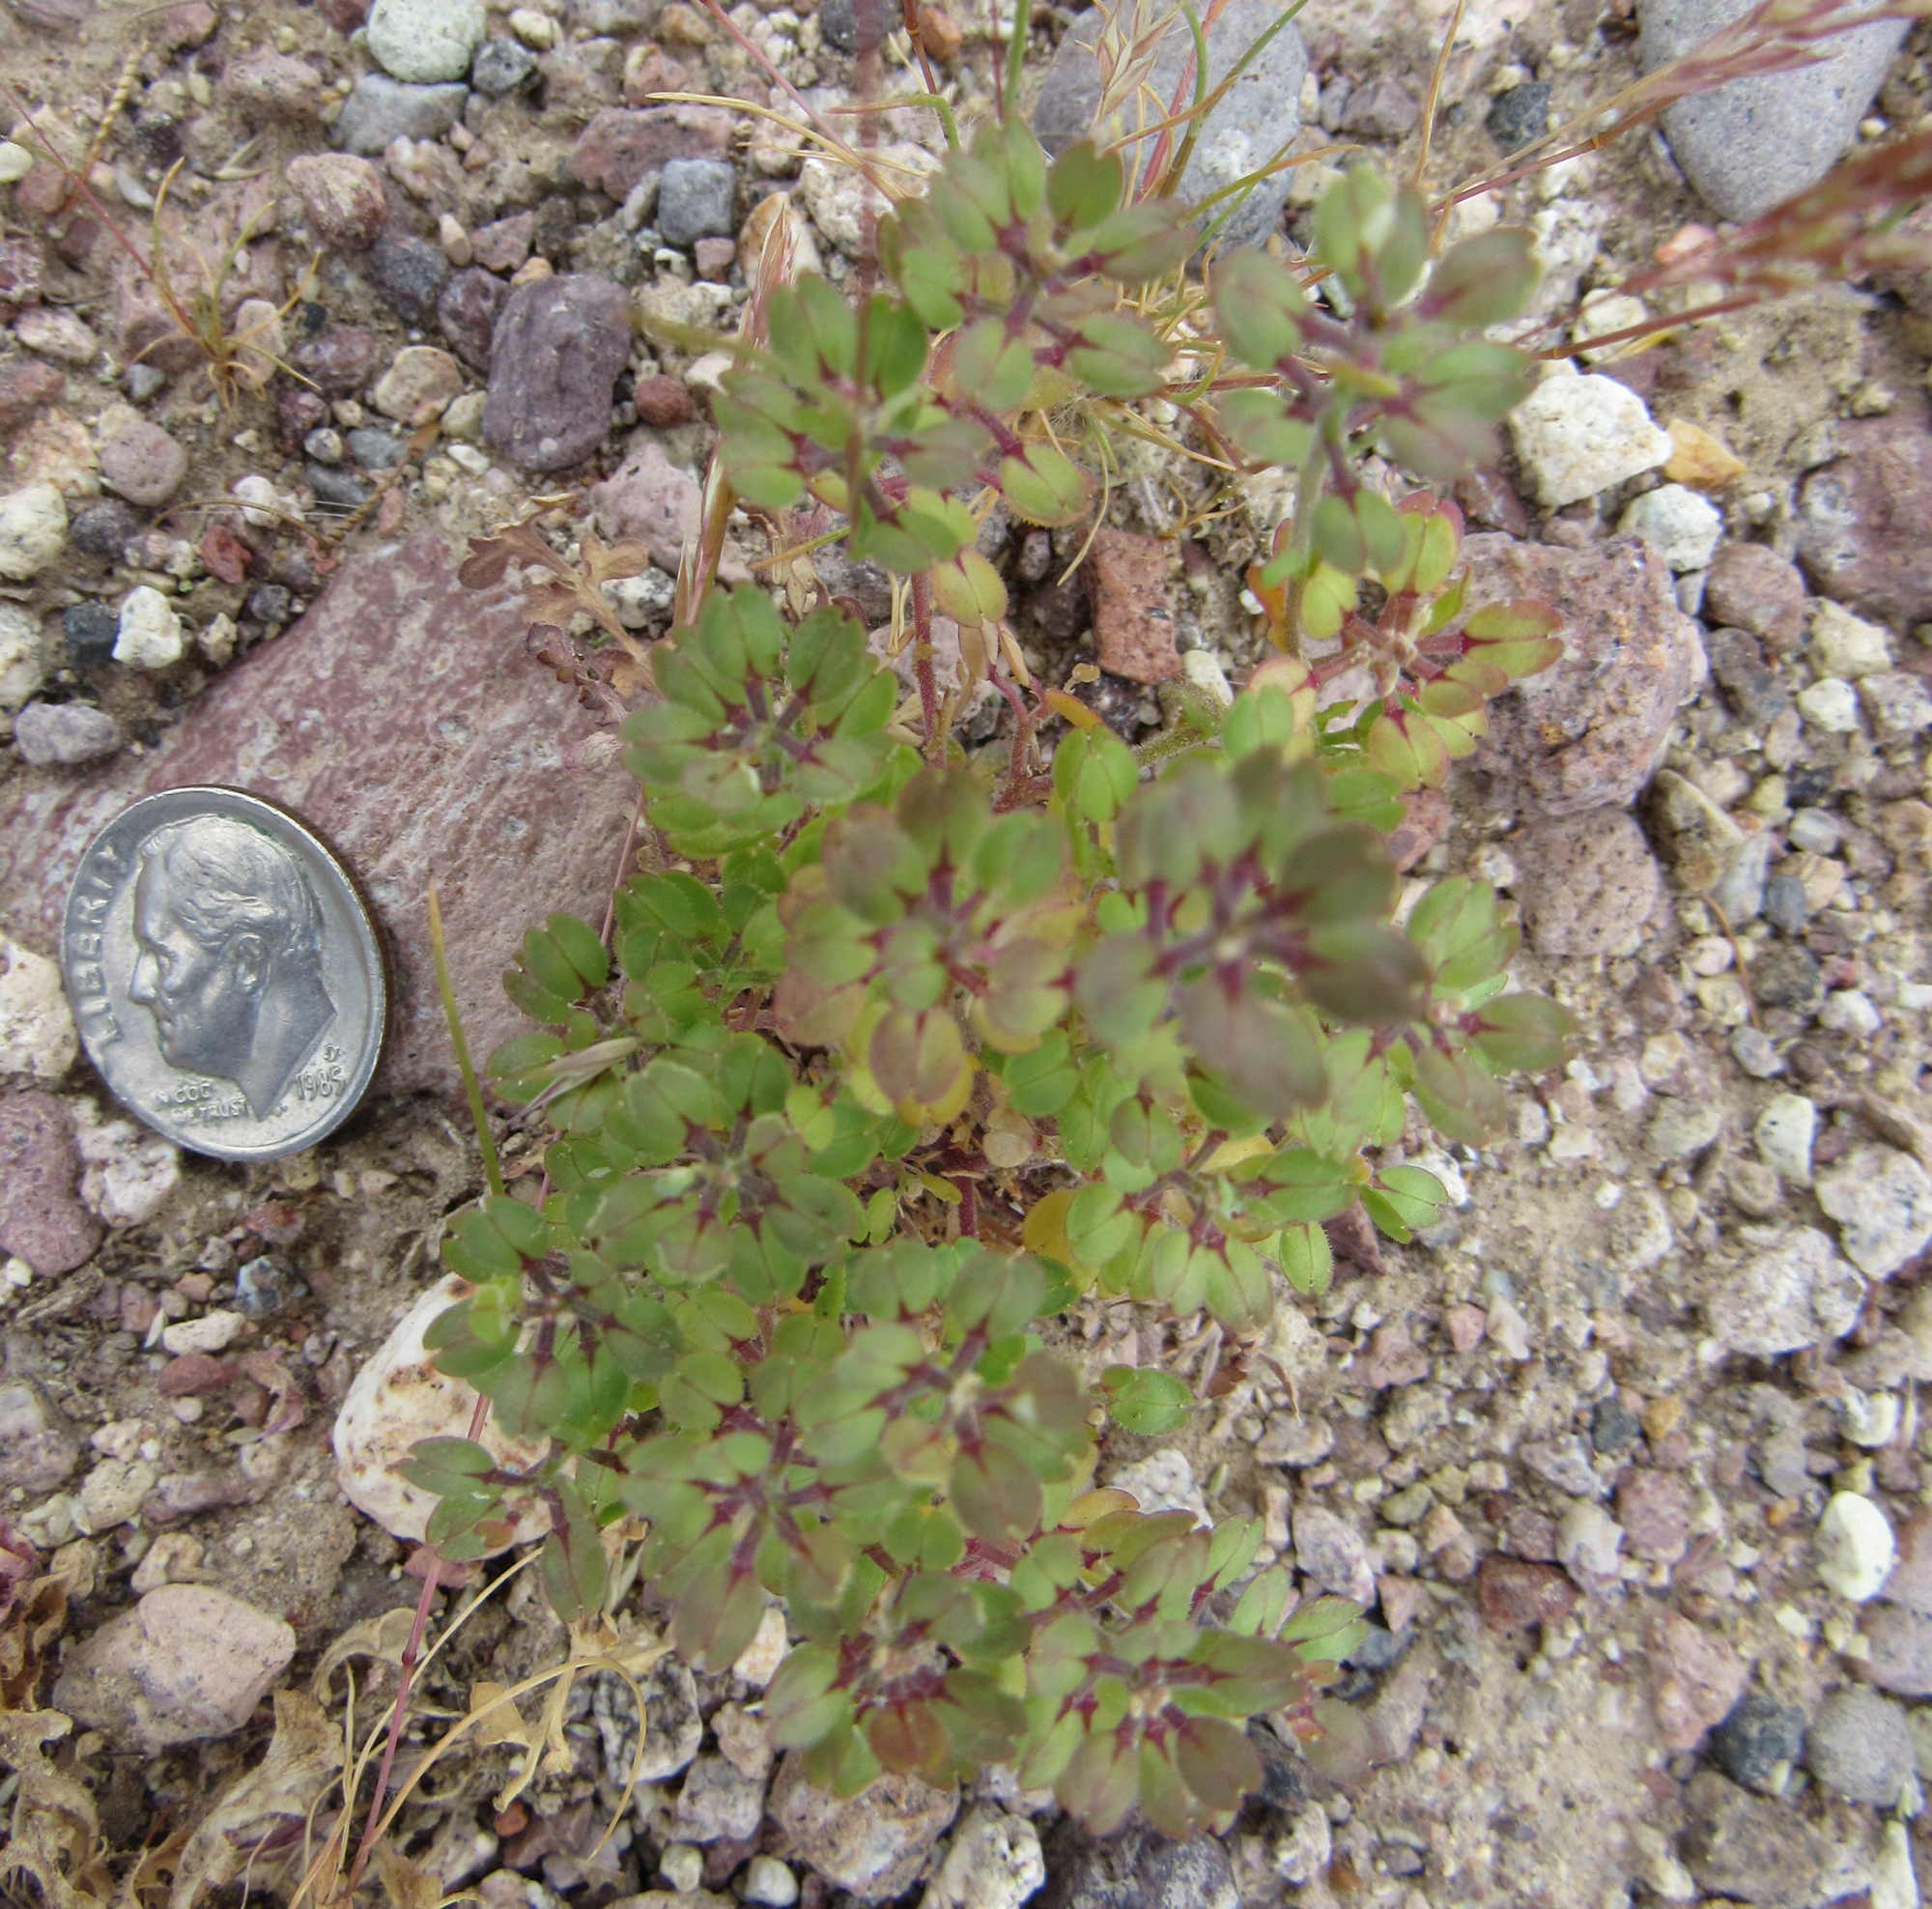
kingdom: Plantae
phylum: Tracheophyta
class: Magnoliopsida
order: Brassicales
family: Brassicaceae
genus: Lepidium
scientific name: Lepidium lasiocarpum
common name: Hairy-pod pepperwort
